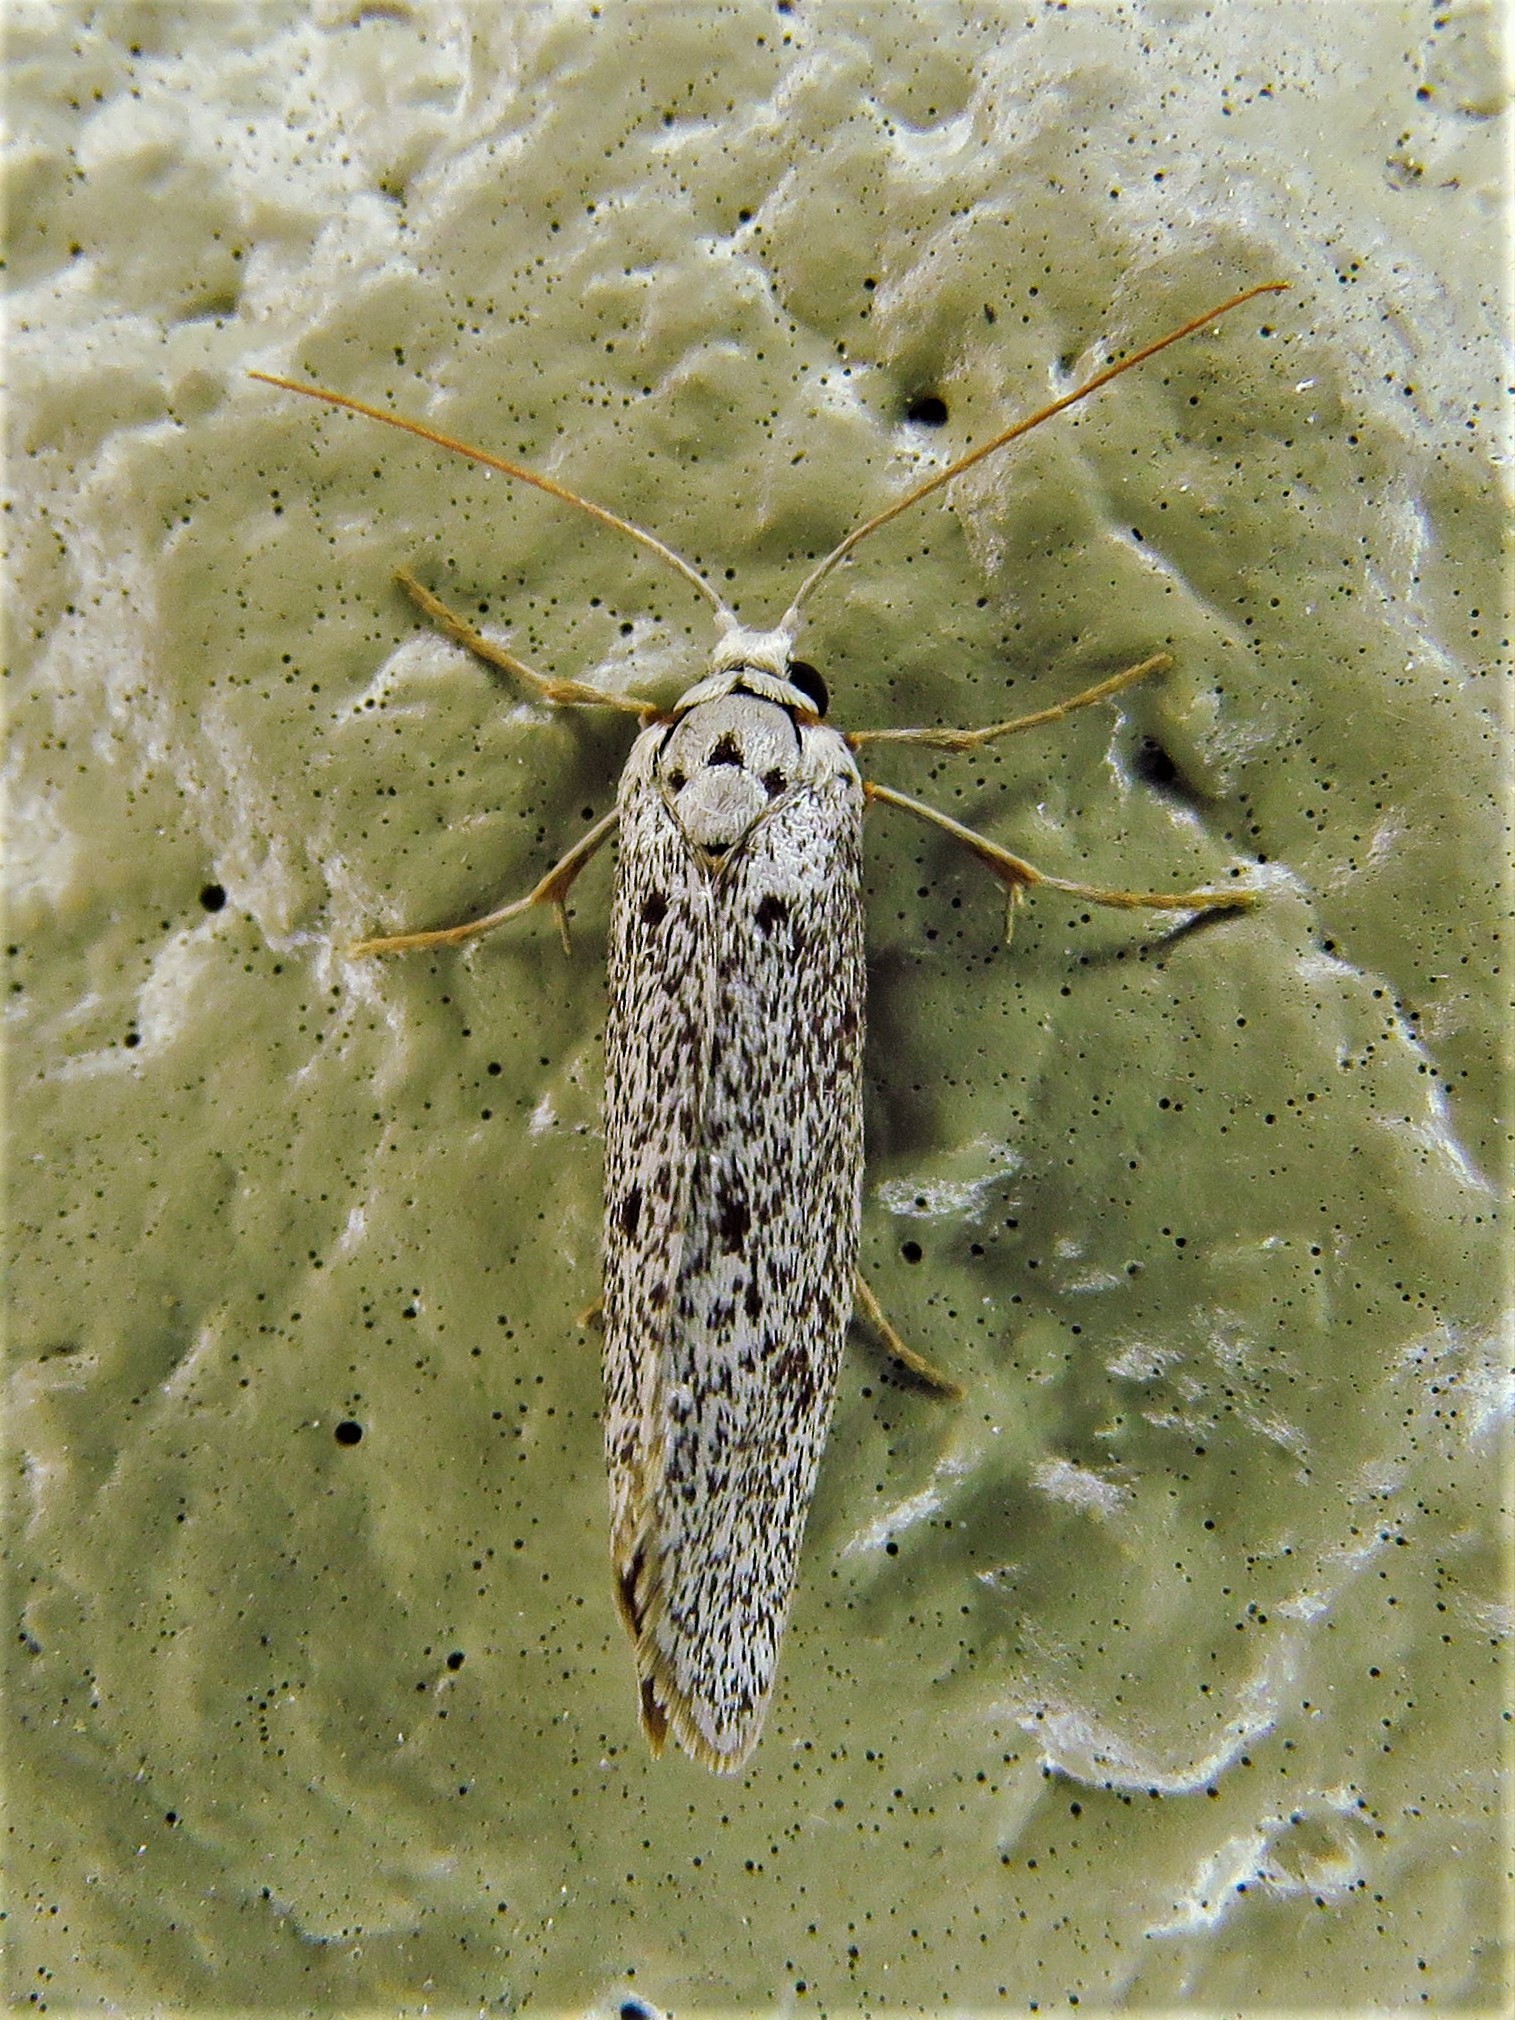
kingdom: Animalia
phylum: Arthropoda
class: Insecta
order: Lepidoptera
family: Lacturidae
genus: Lactura
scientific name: Lactura
